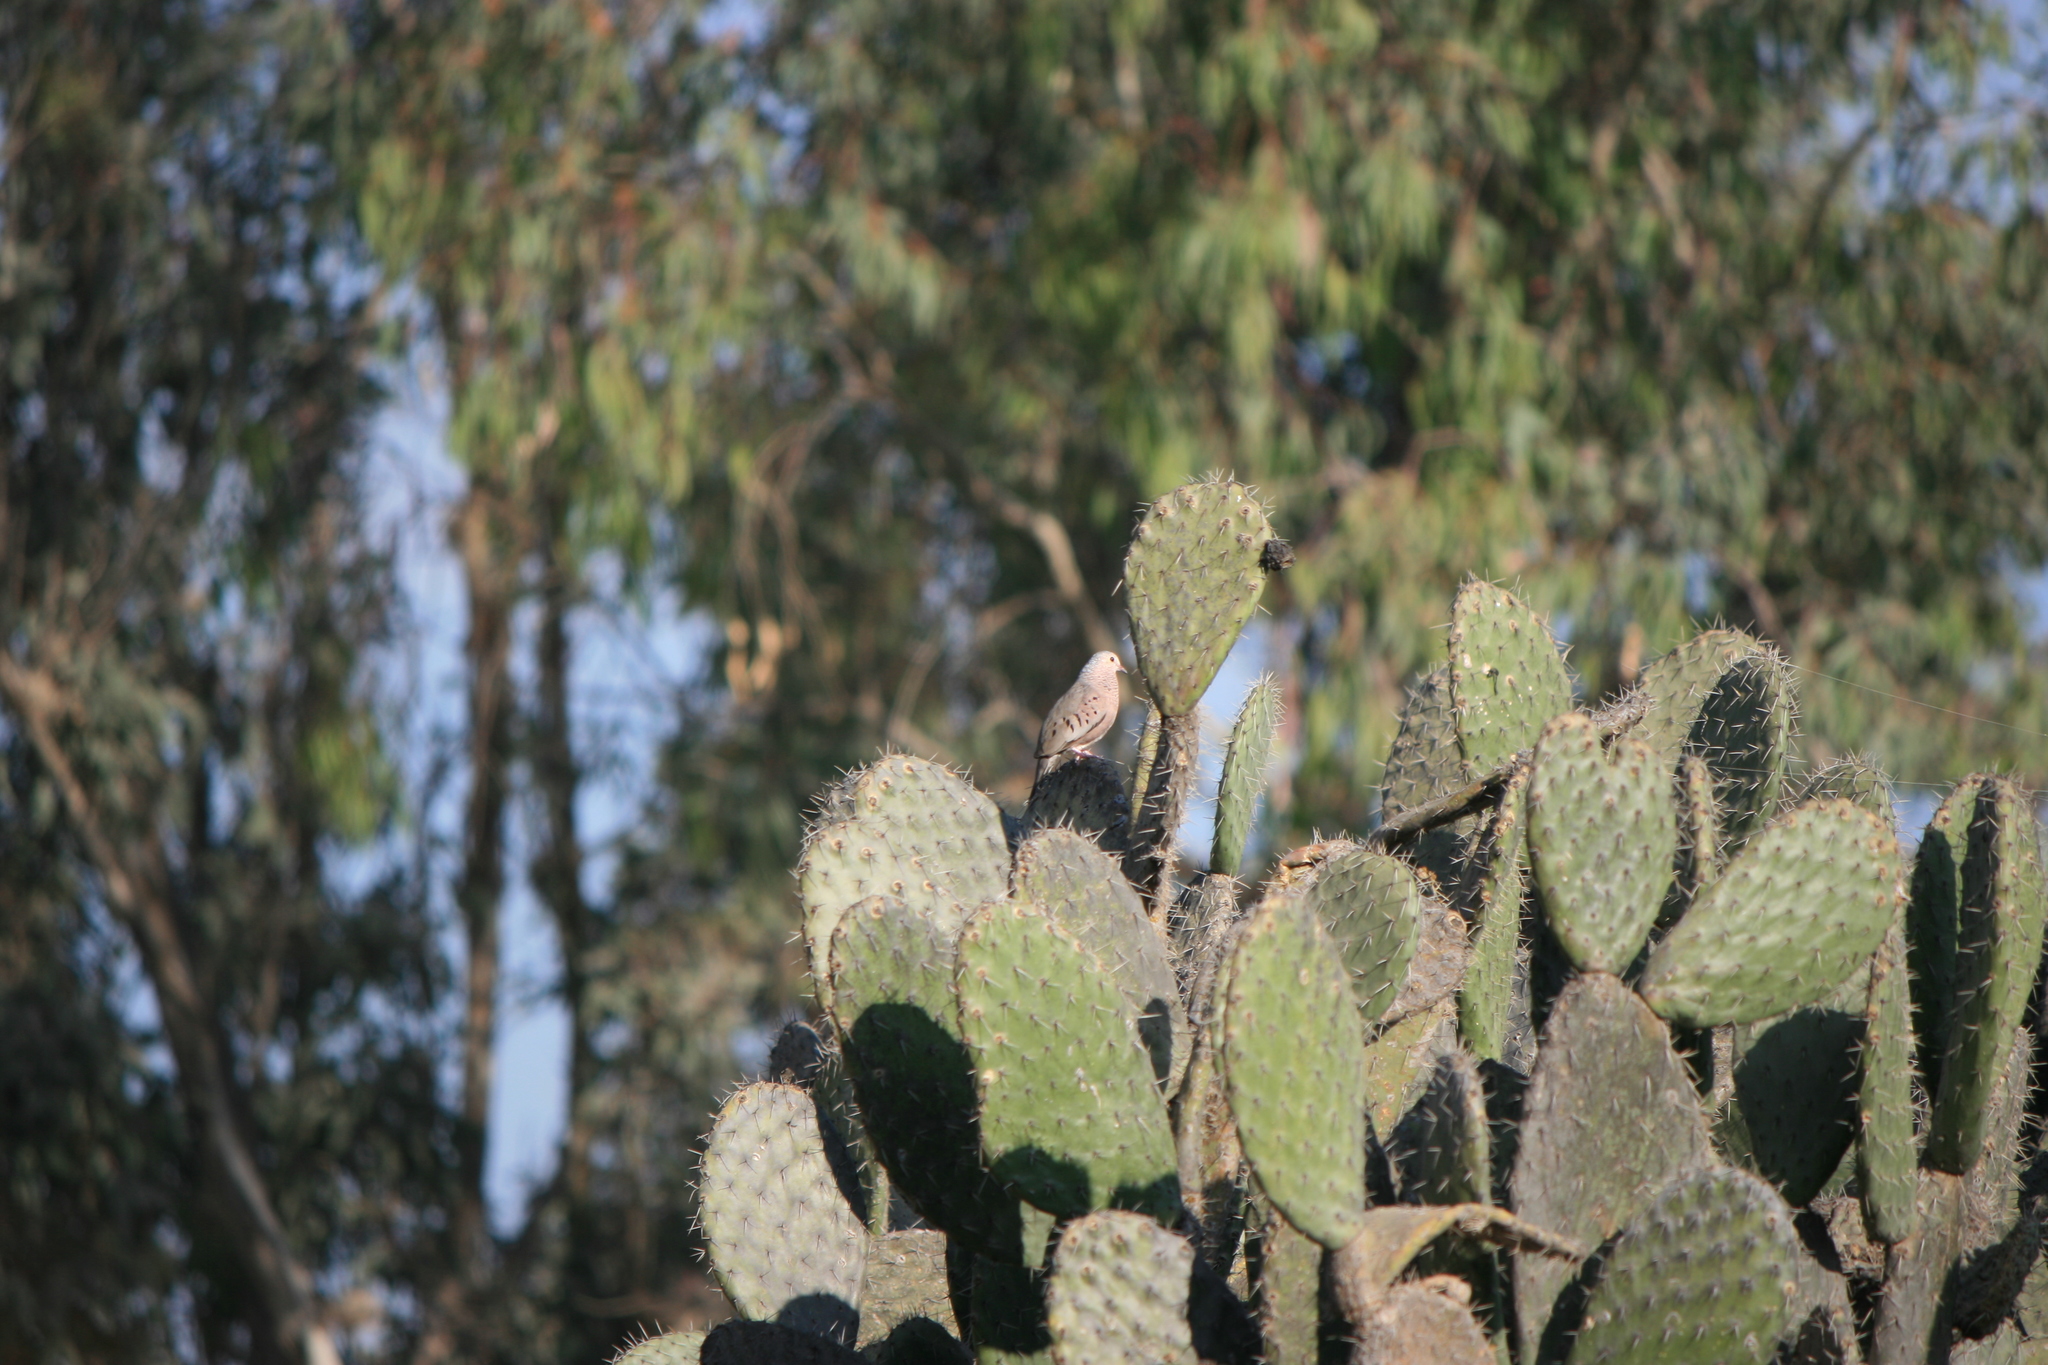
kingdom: Animalia
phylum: Chordata
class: Aves
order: Columbiformes
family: Columbidae
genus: Columbina
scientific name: Columbina passerina
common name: Common ground-dove
